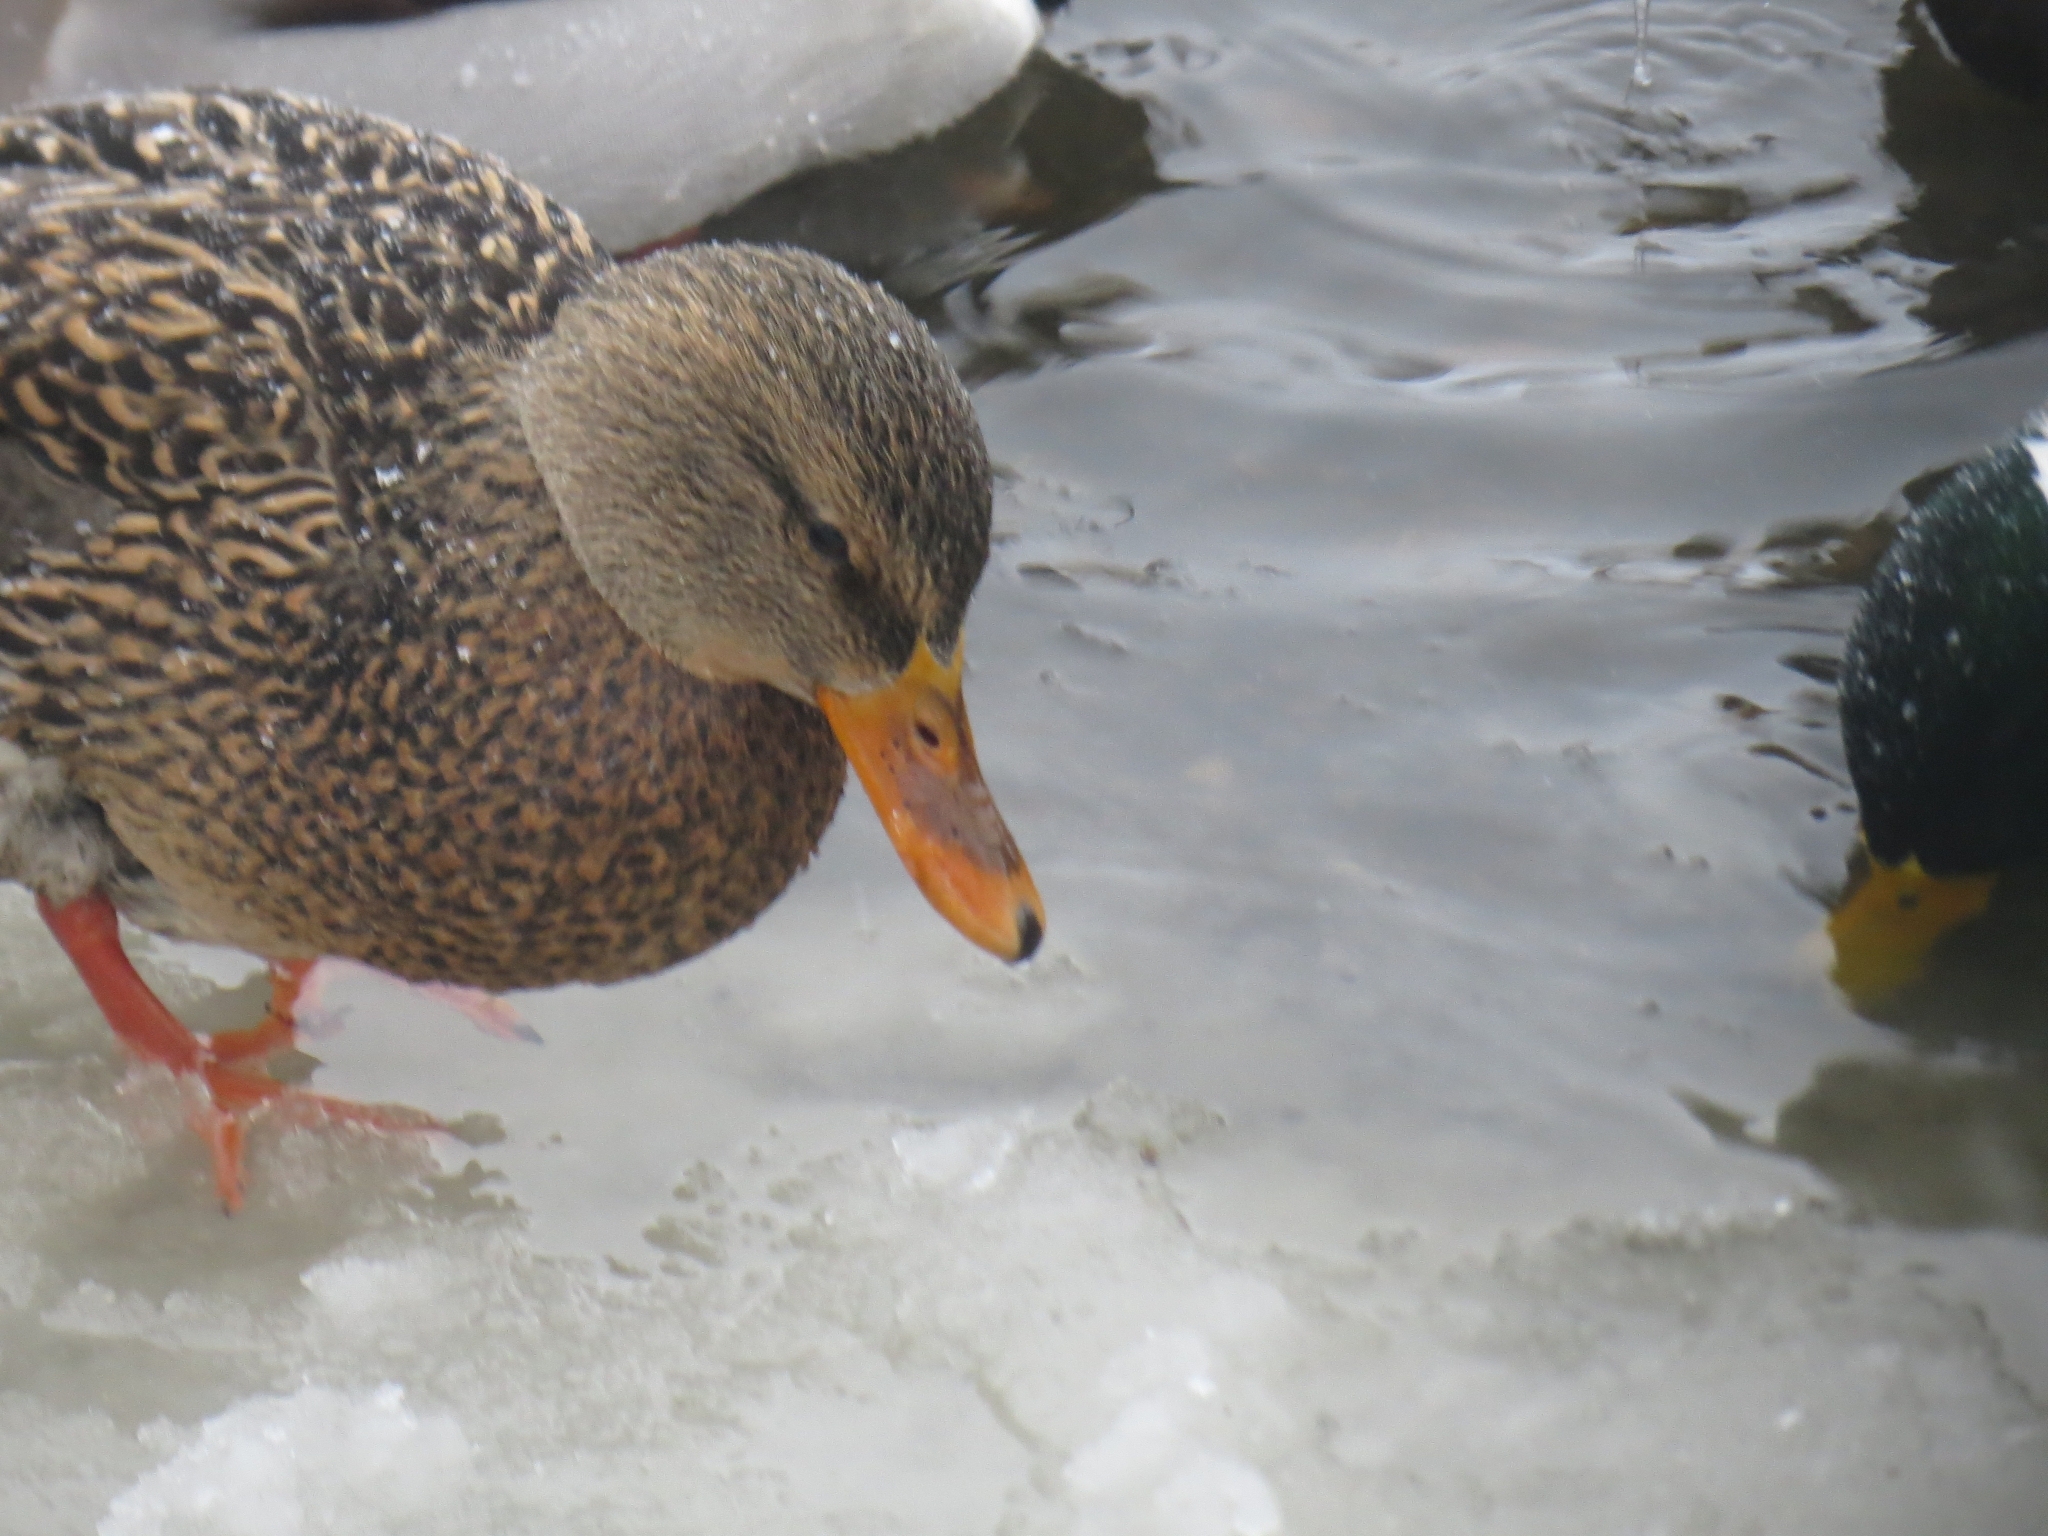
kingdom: Animalia
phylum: Chordata
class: Aves
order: Anseriformes
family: Anatidae
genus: Anas
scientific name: Anas platyrhynchos
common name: Mallard
